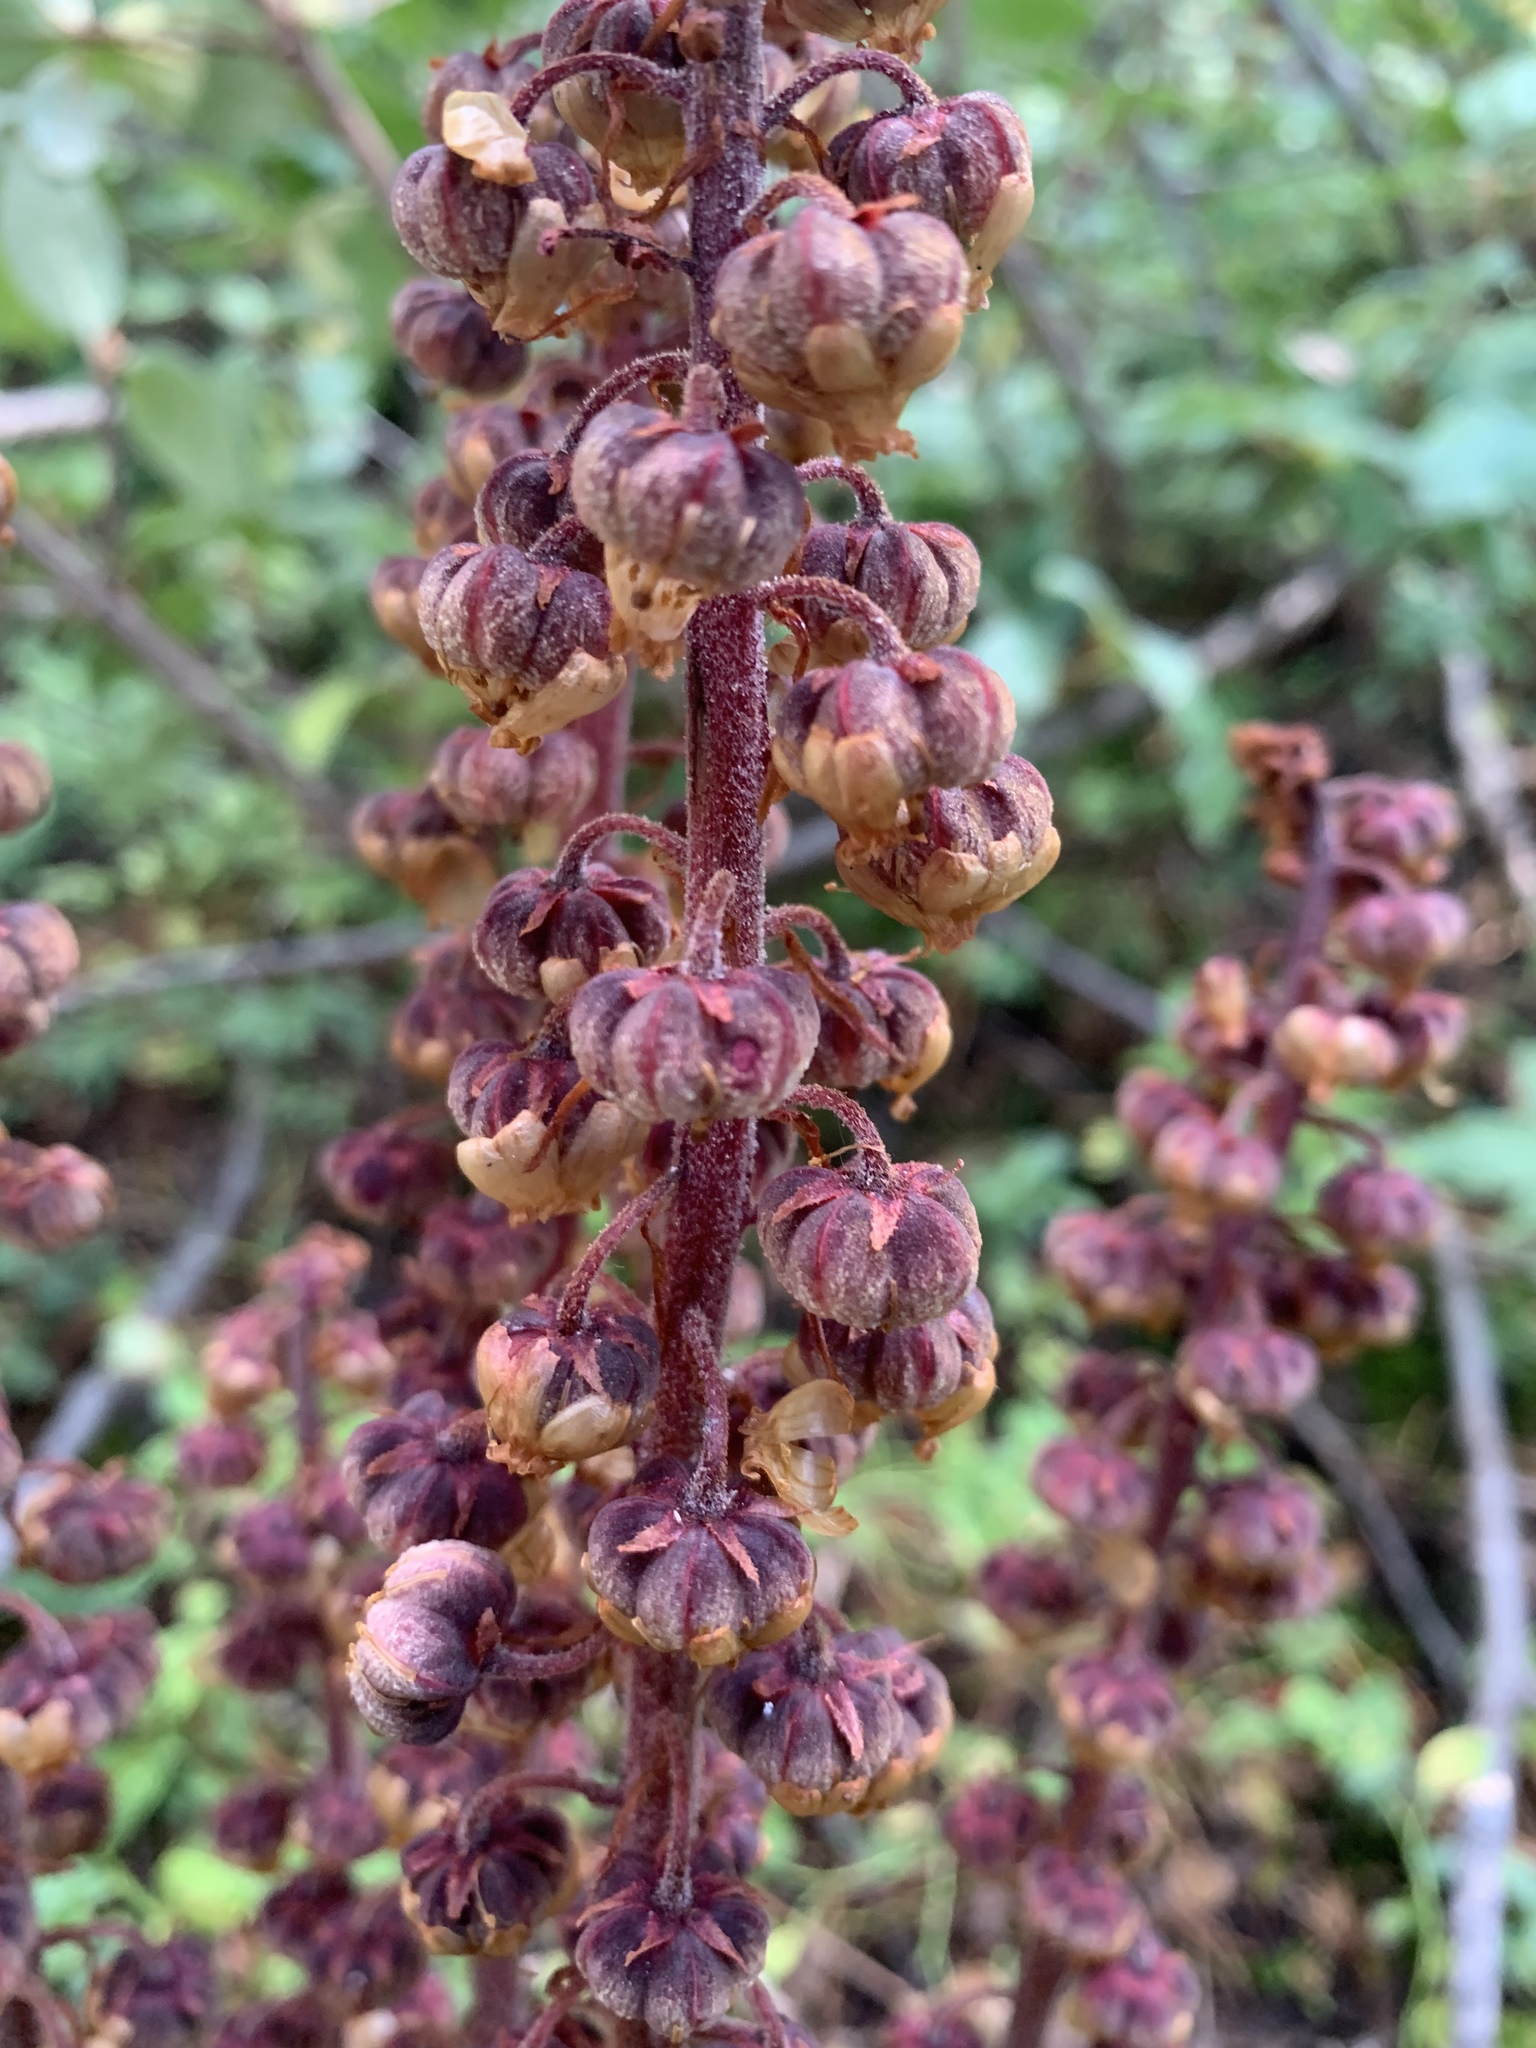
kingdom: Plantae
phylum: Tracheophyta
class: Magnoliopsida
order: Ericales
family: Ericaceae
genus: Pterospora
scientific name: Pterospora andromedea
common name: Giant bird's-nest
